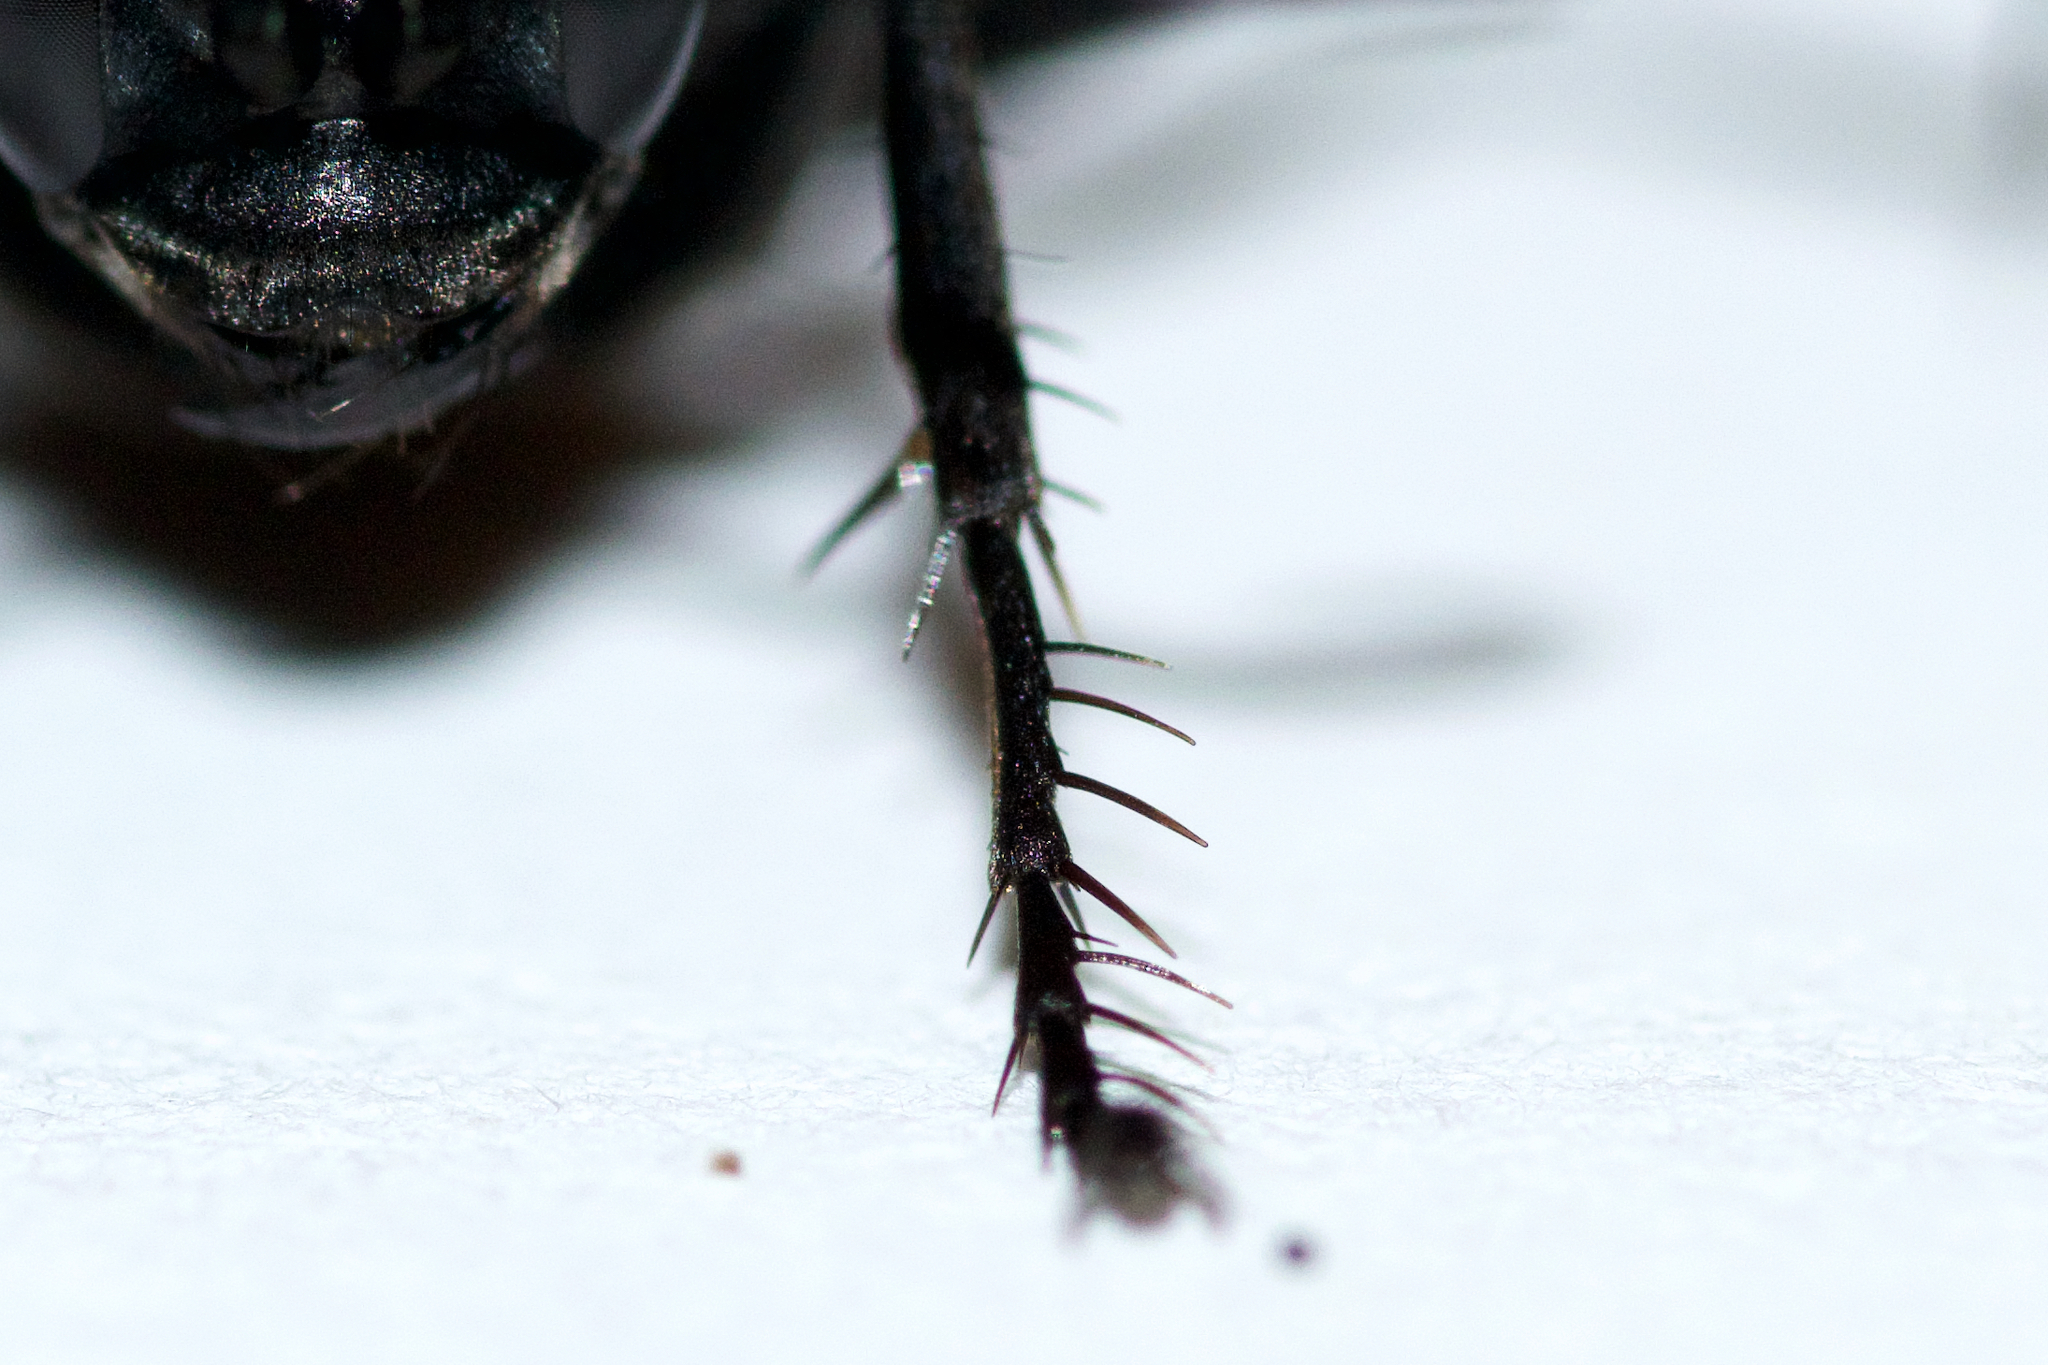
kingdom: Animalia
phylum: Arthropoda
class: Insecta
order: Hymenoptera
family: Pompilidae
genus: Anoplius
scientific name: Anoplius cleora
